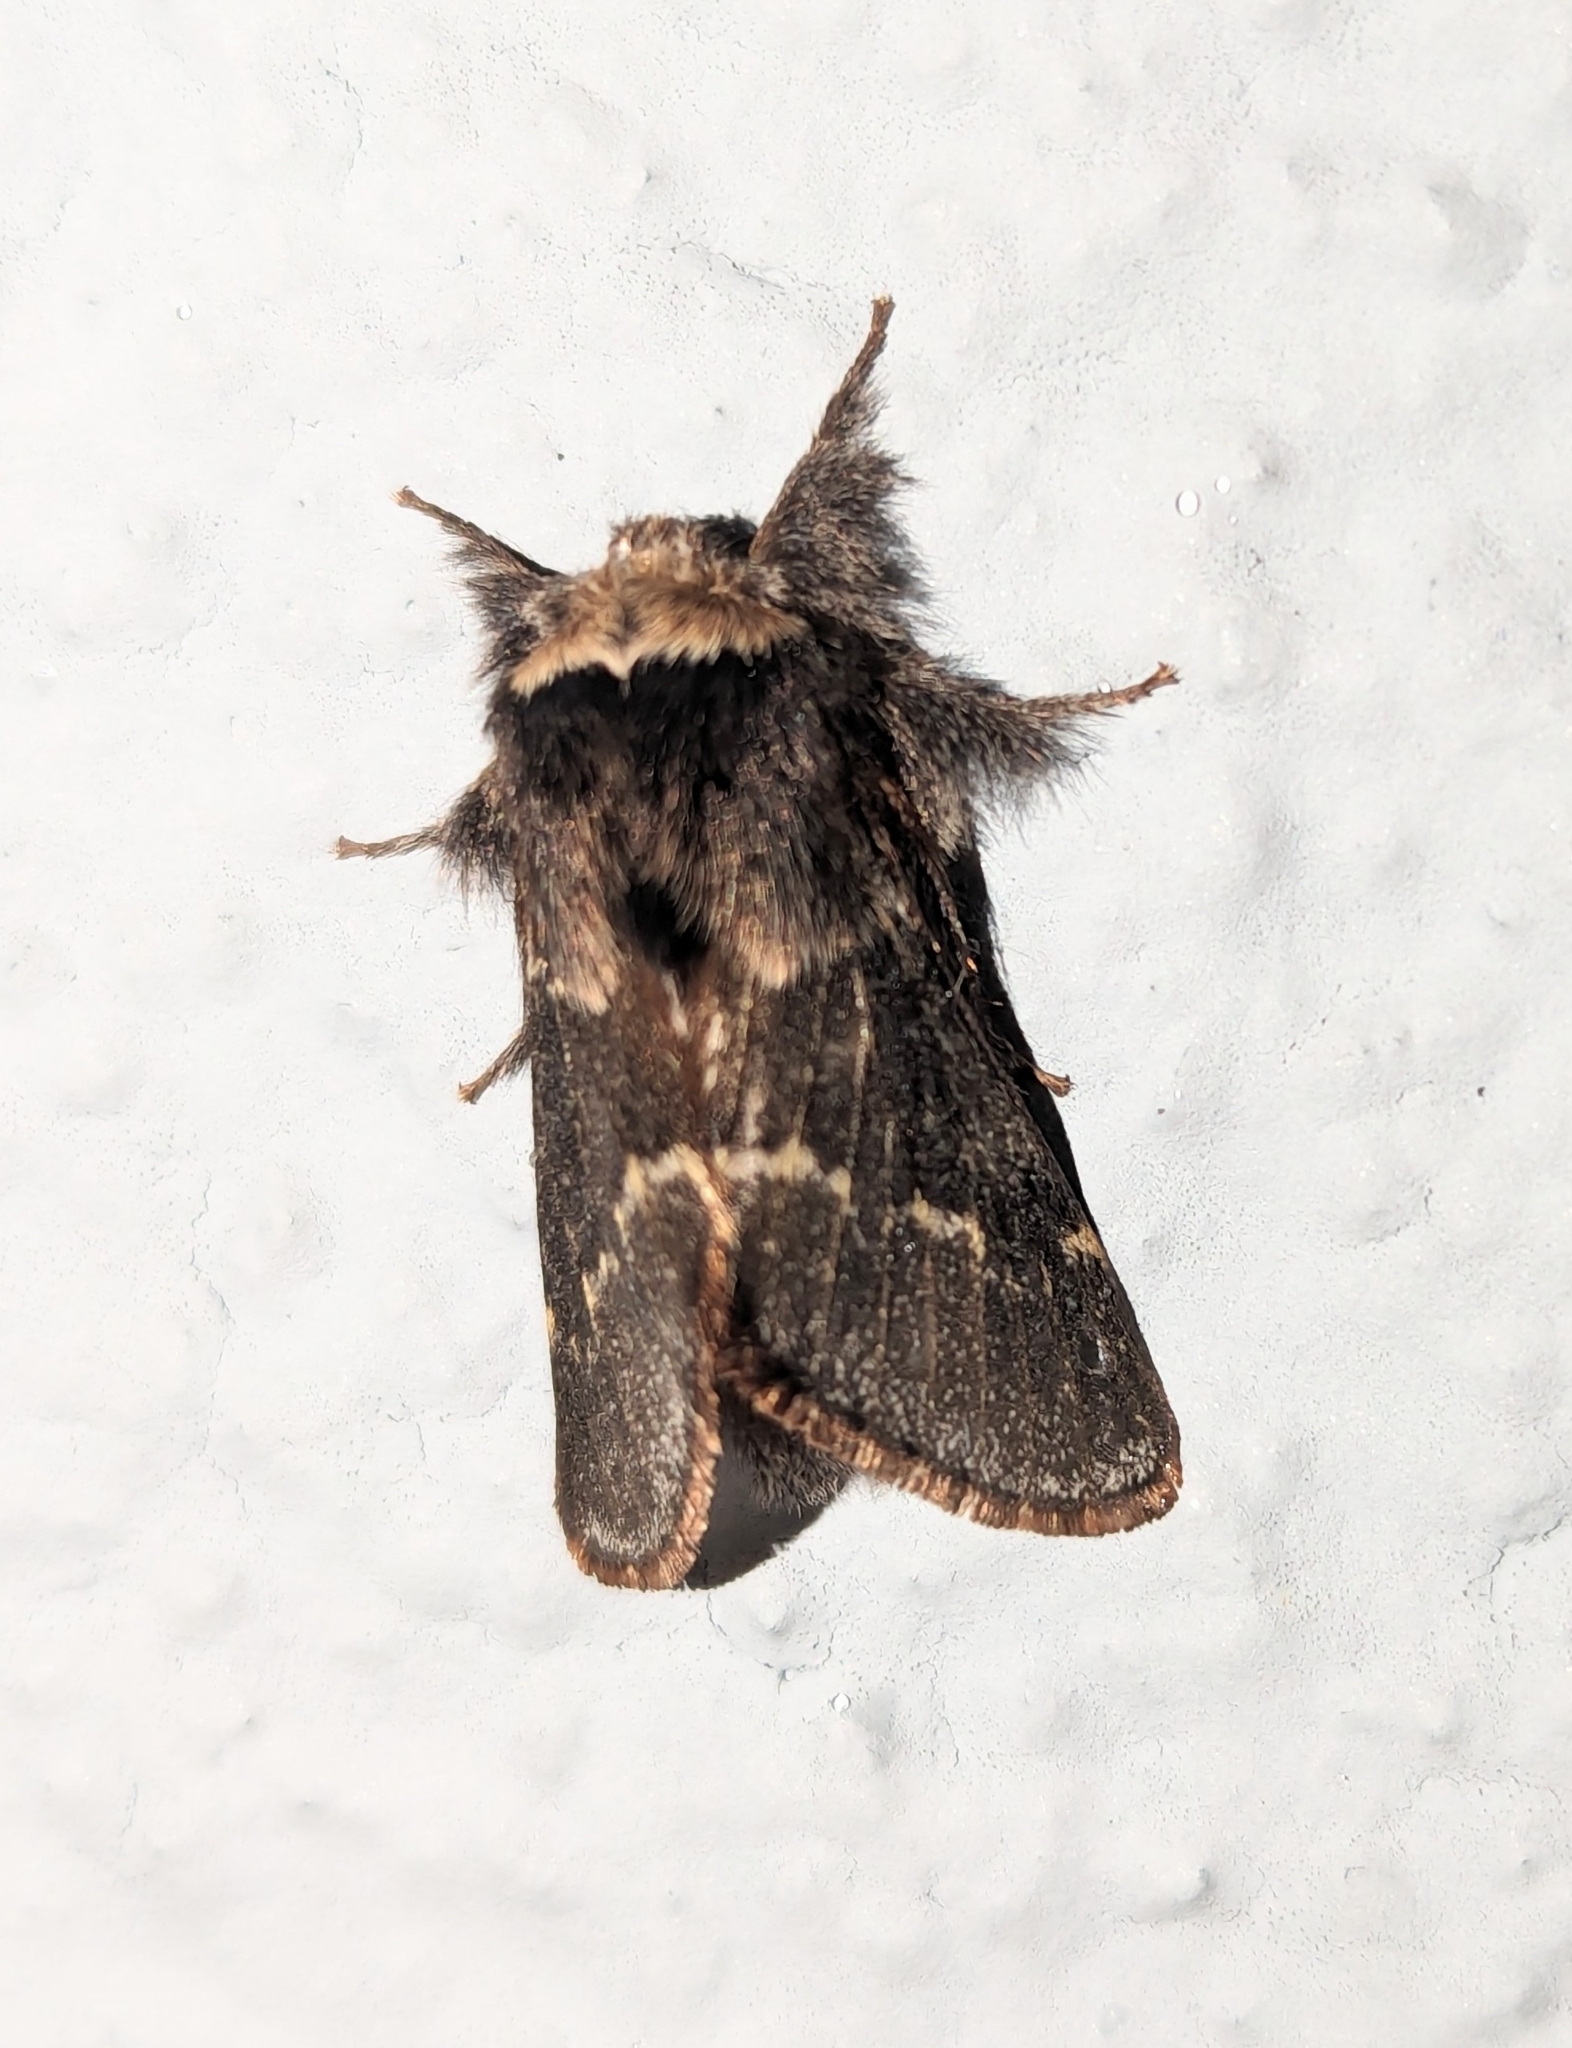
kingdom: Animalia
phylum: Arthropoda
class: Insecta
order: Lepidoptera
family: Lasiocampidae
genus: Poecilocampa
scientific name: Poecilocampa populi
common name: December moth
